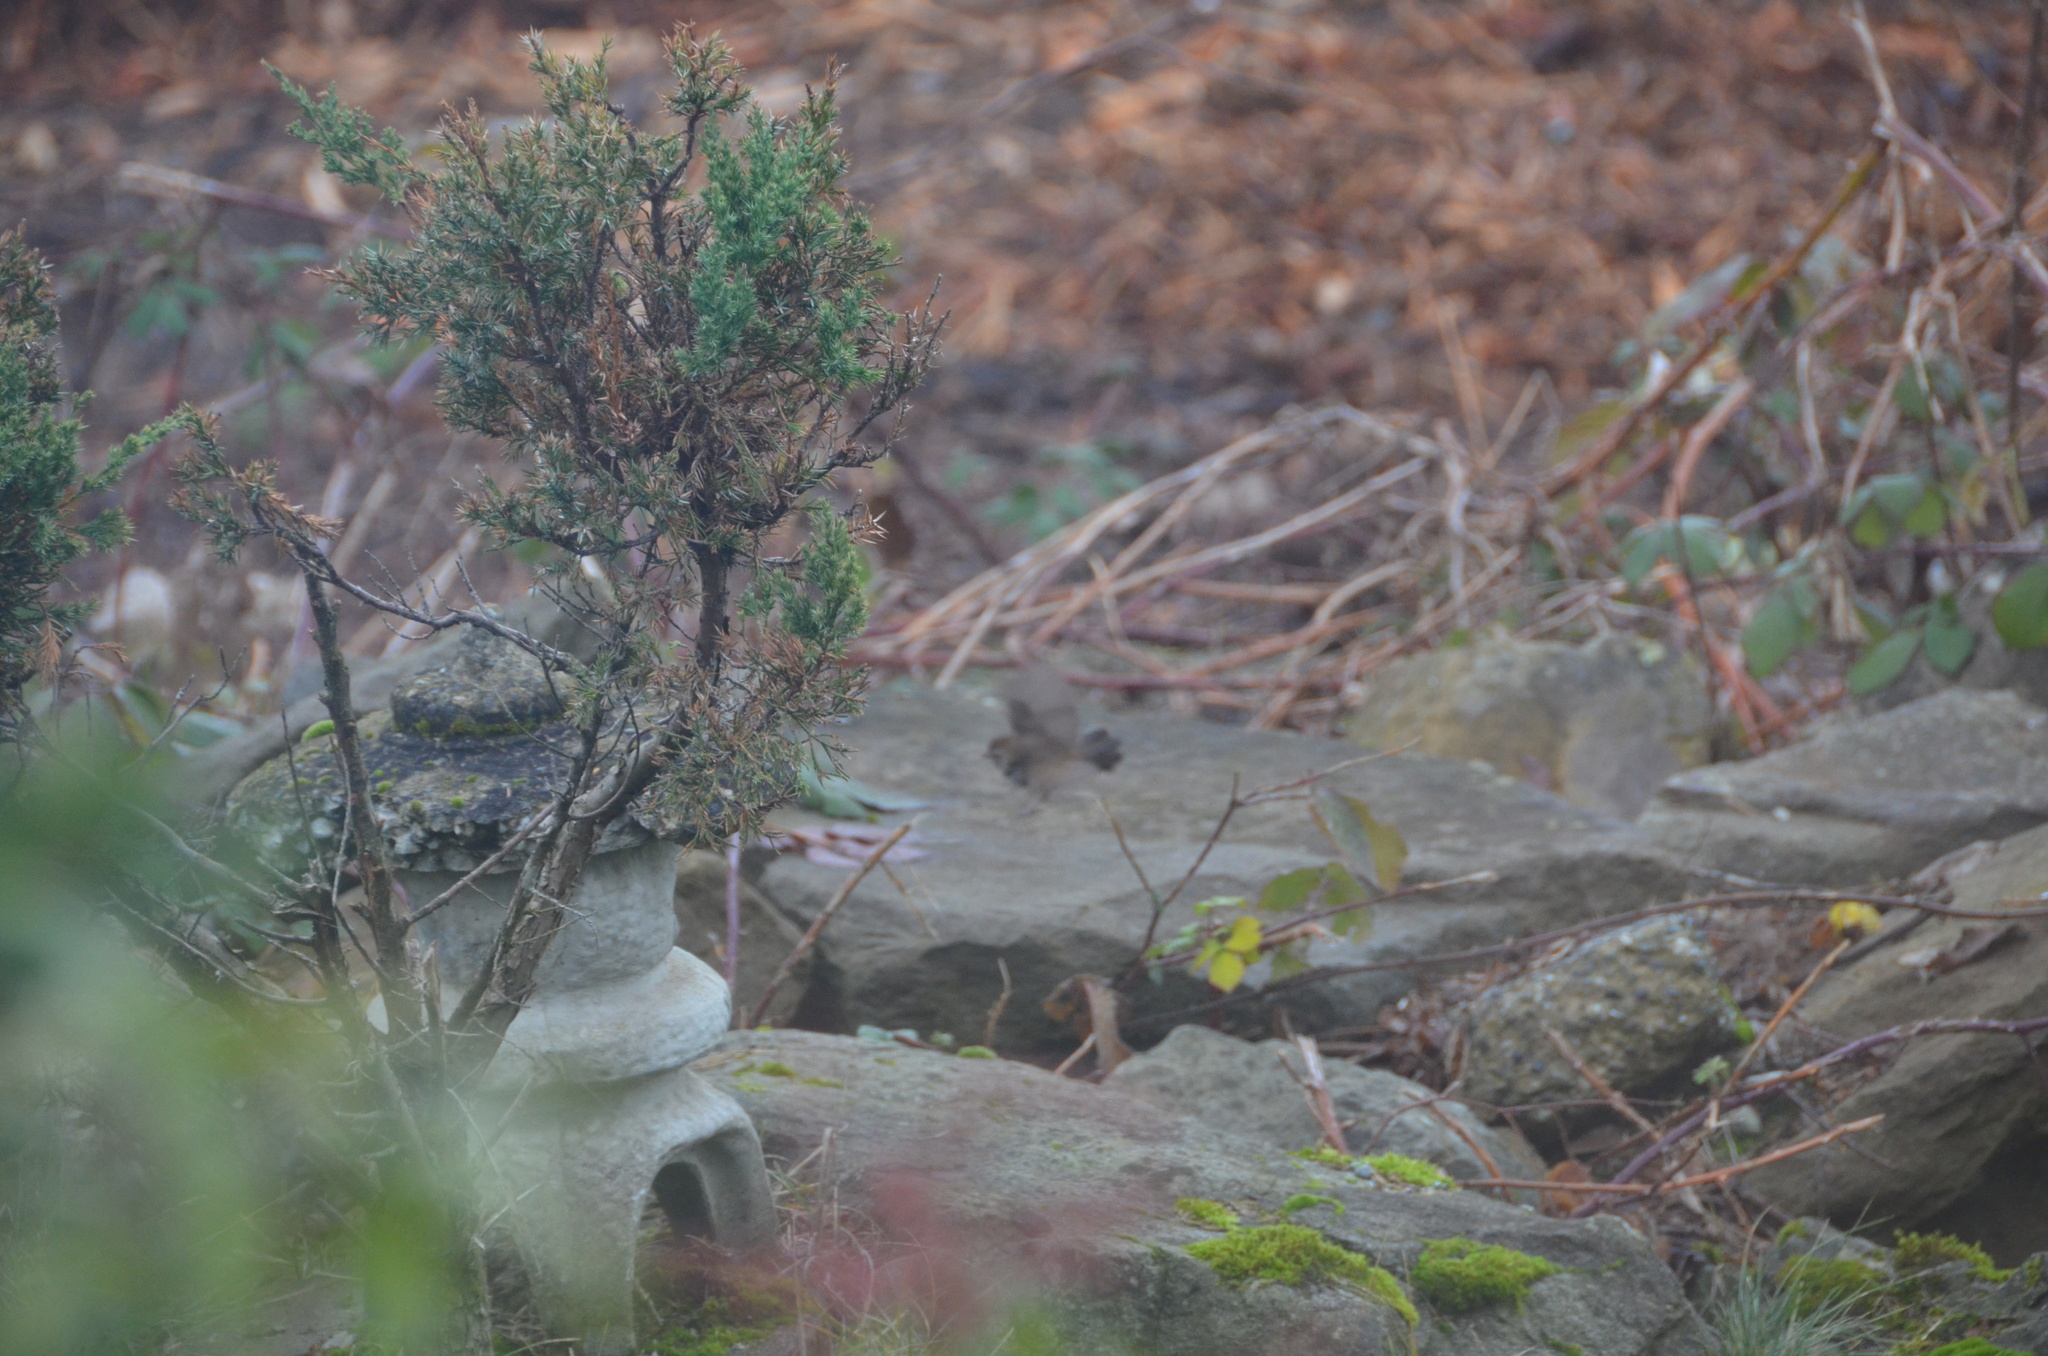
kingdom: Animalia
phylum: Chordata
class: Aves
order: Passeriformes
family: Troglodytidae
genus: Thryomanes
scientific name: Thryomanes bewickii
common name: Bewick's wren
